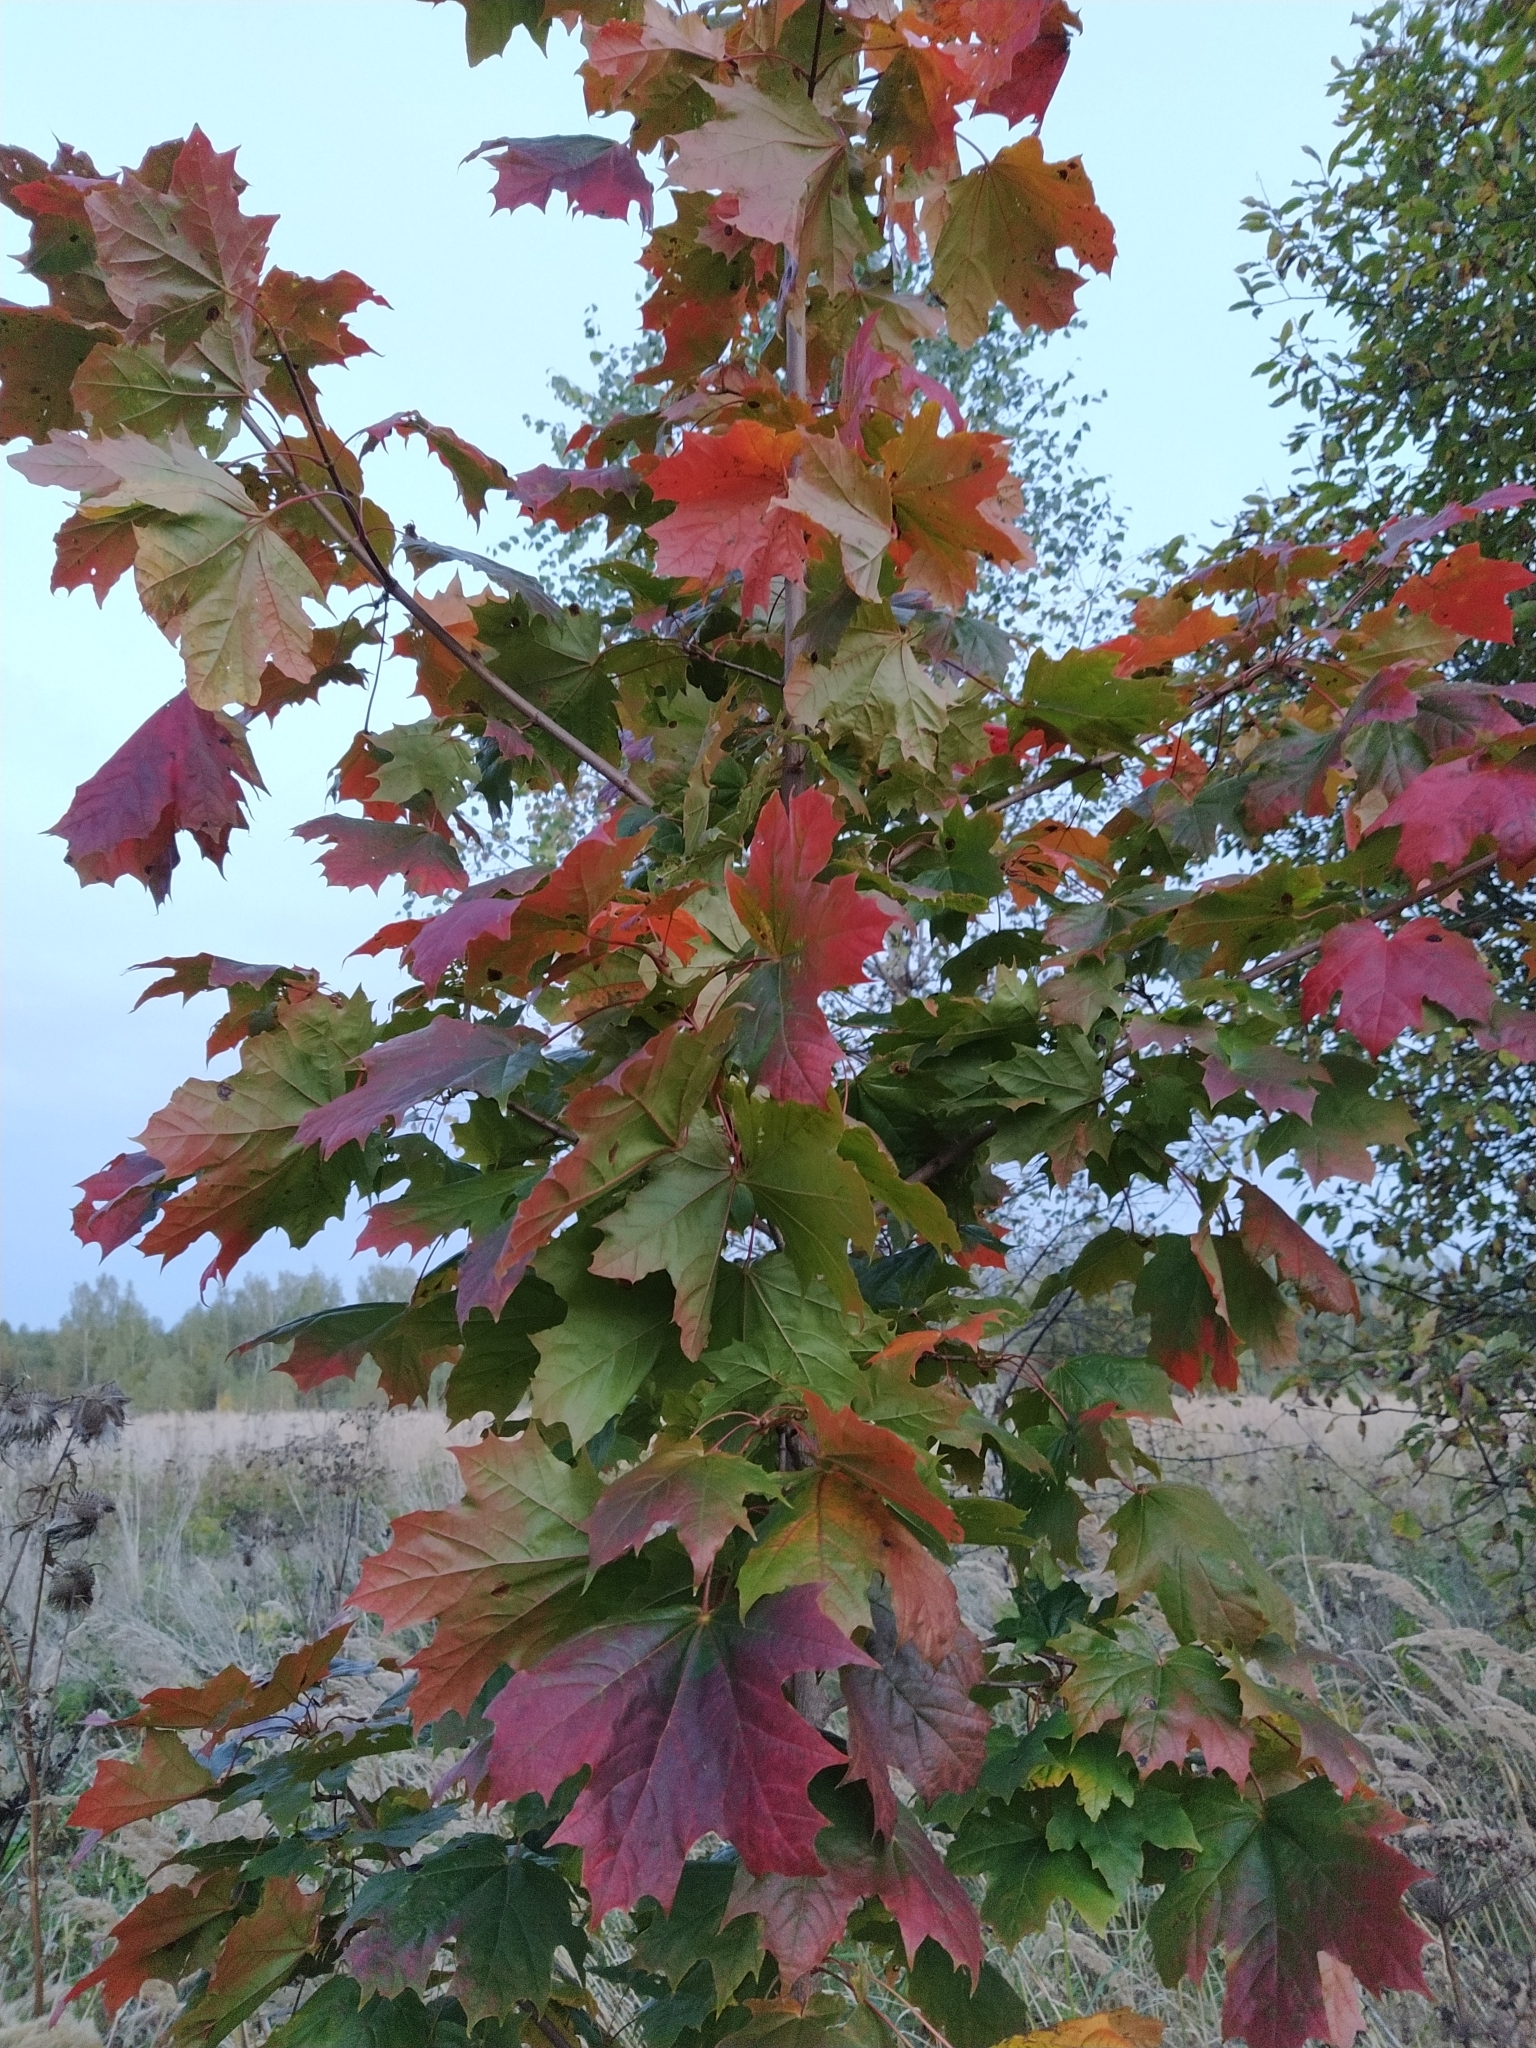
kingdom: Plantae
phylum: Tracheophyta
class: Magnoliopsida
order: Sapindales
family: Sapindaceae
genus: Acer
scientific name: Acer platanoides
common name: Norway maple
